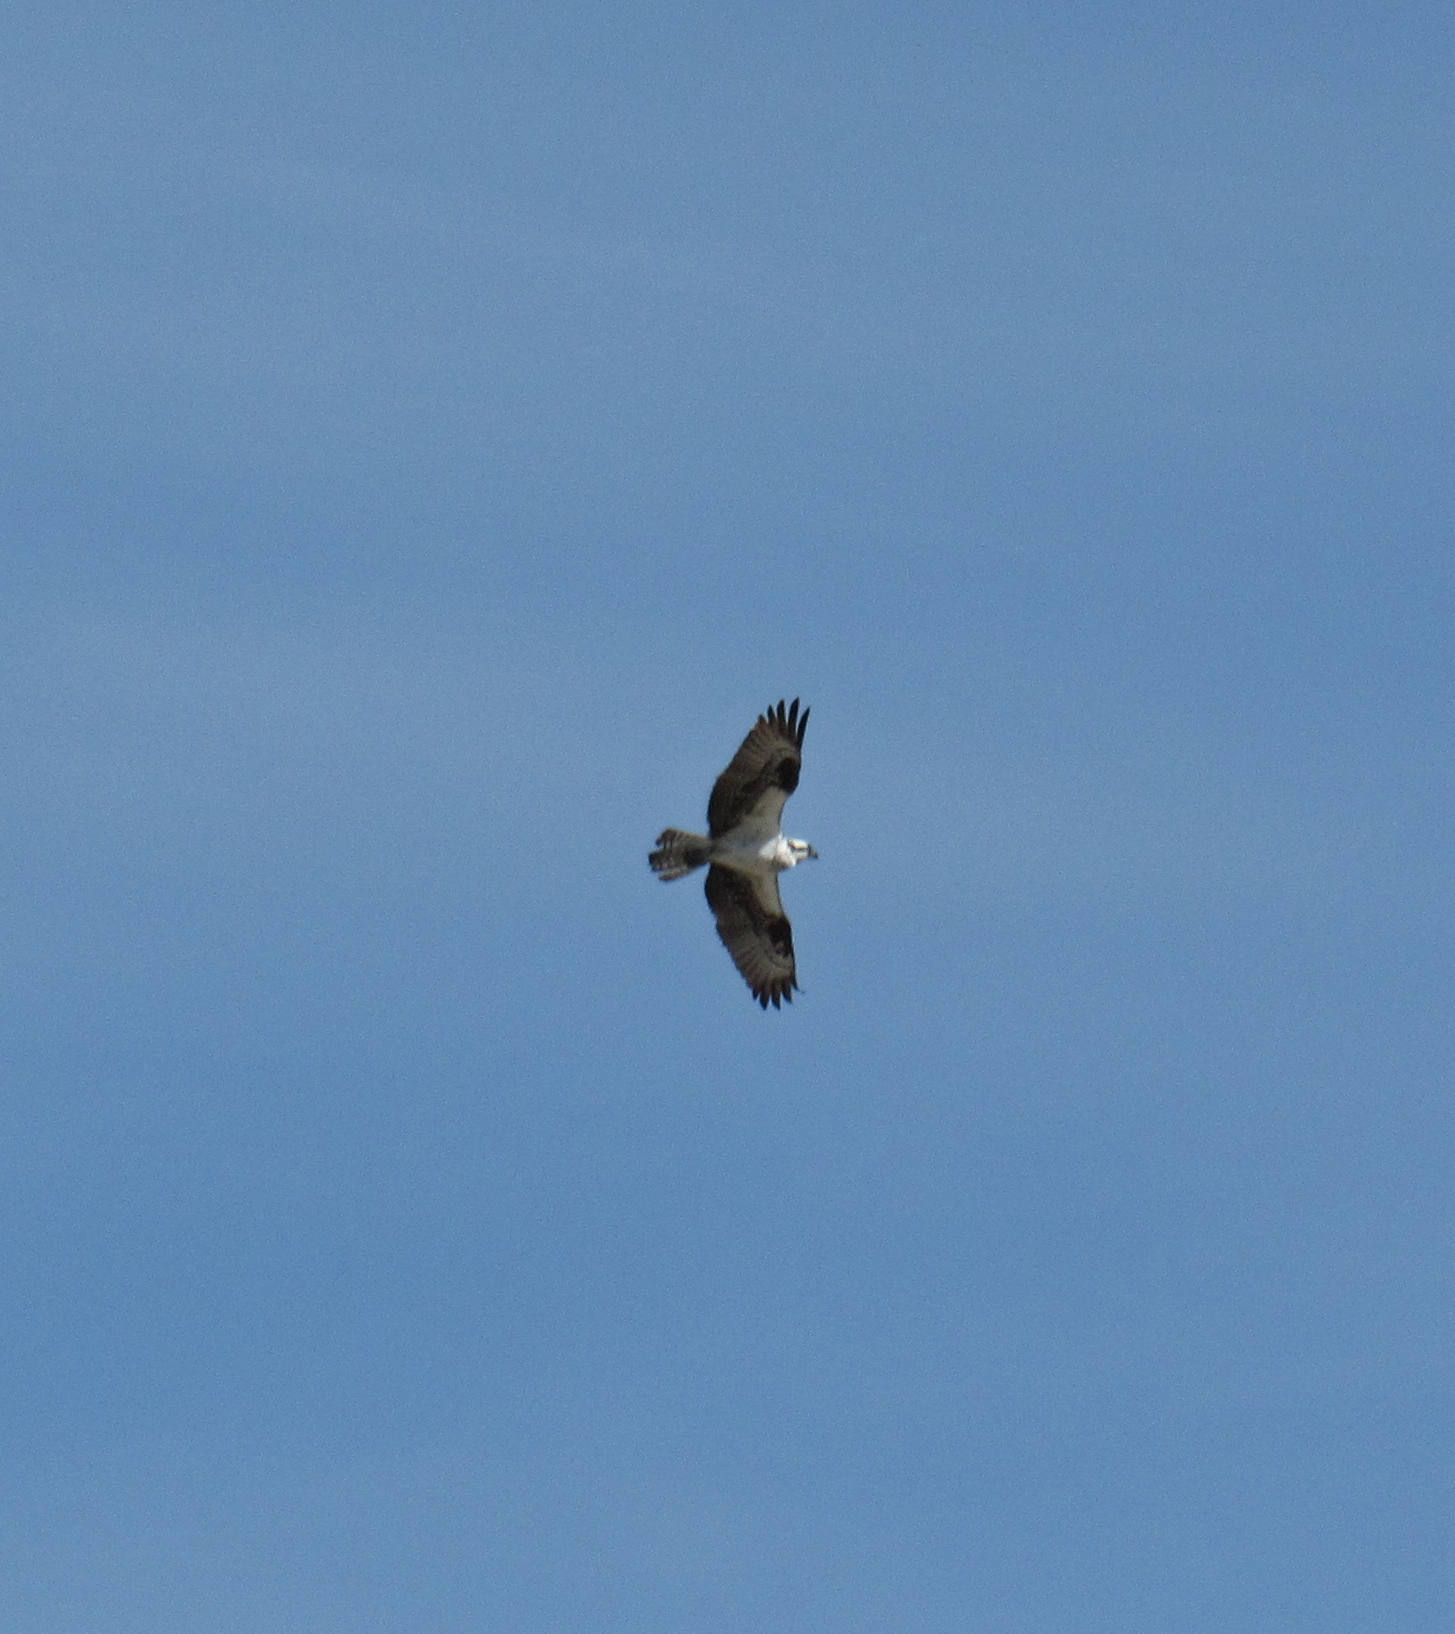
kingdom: Animalia
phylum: Chordata
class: Aves
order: Accipitriformes
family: Pandionidae
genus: Pandion
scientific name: Pandion haliaetus
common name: Osprey
